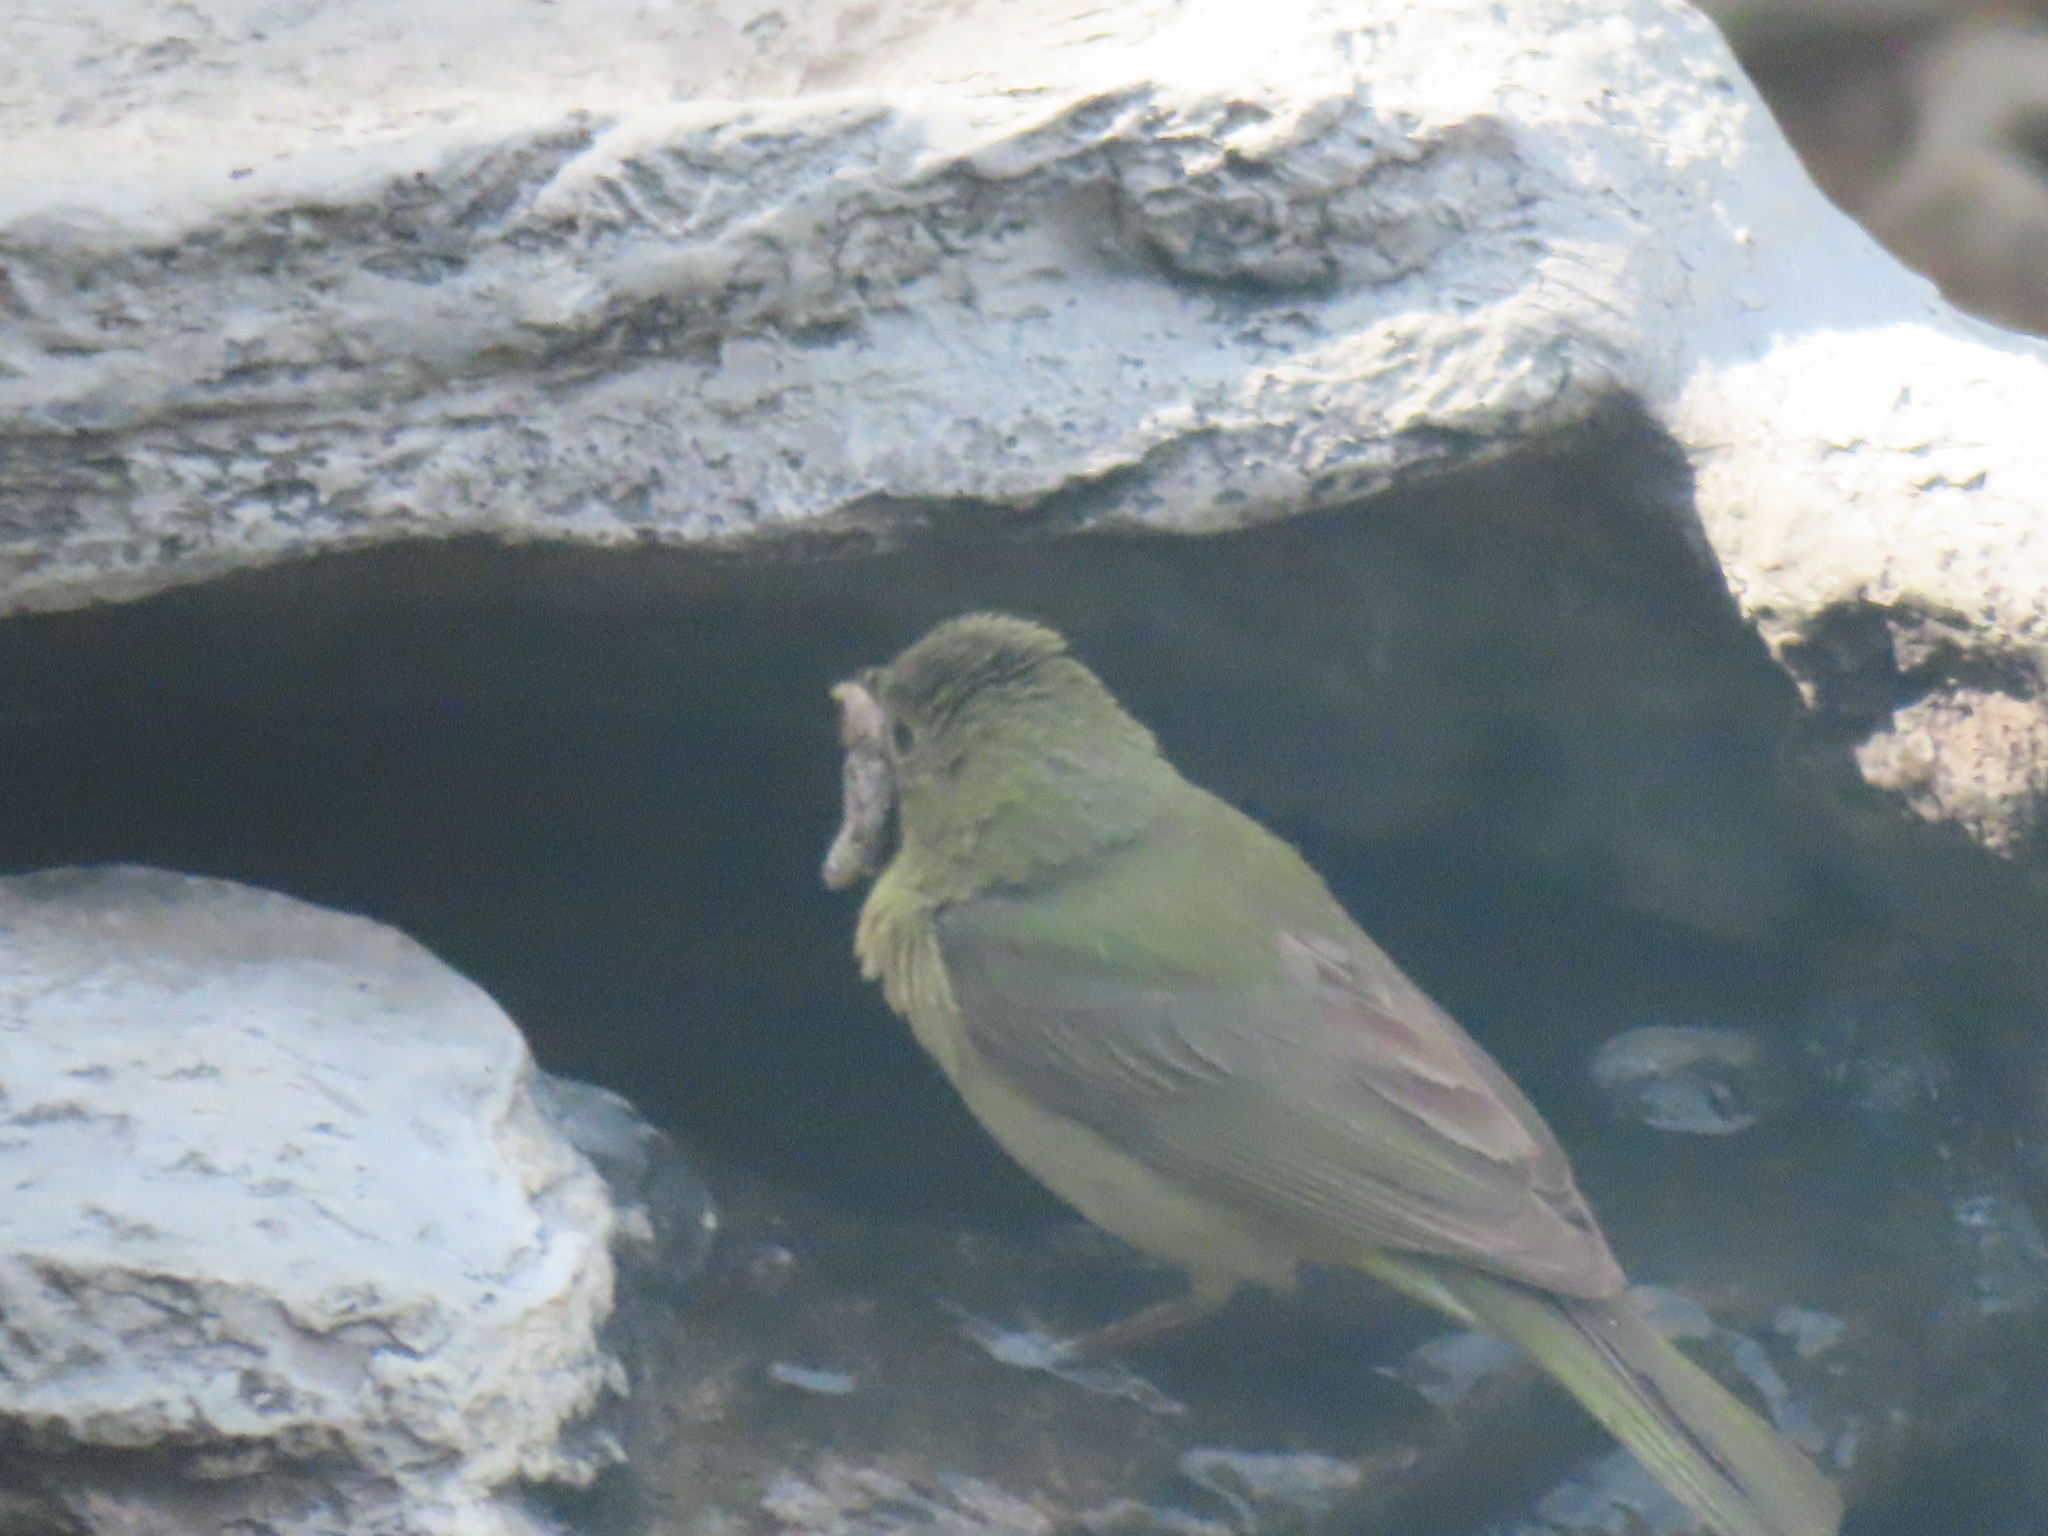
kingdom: Animalia
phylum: Chordata
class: Aves
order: Passeriformes
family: Cardinalidae
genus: Passerina
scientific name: Passerina ciris
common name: Painted bunting
